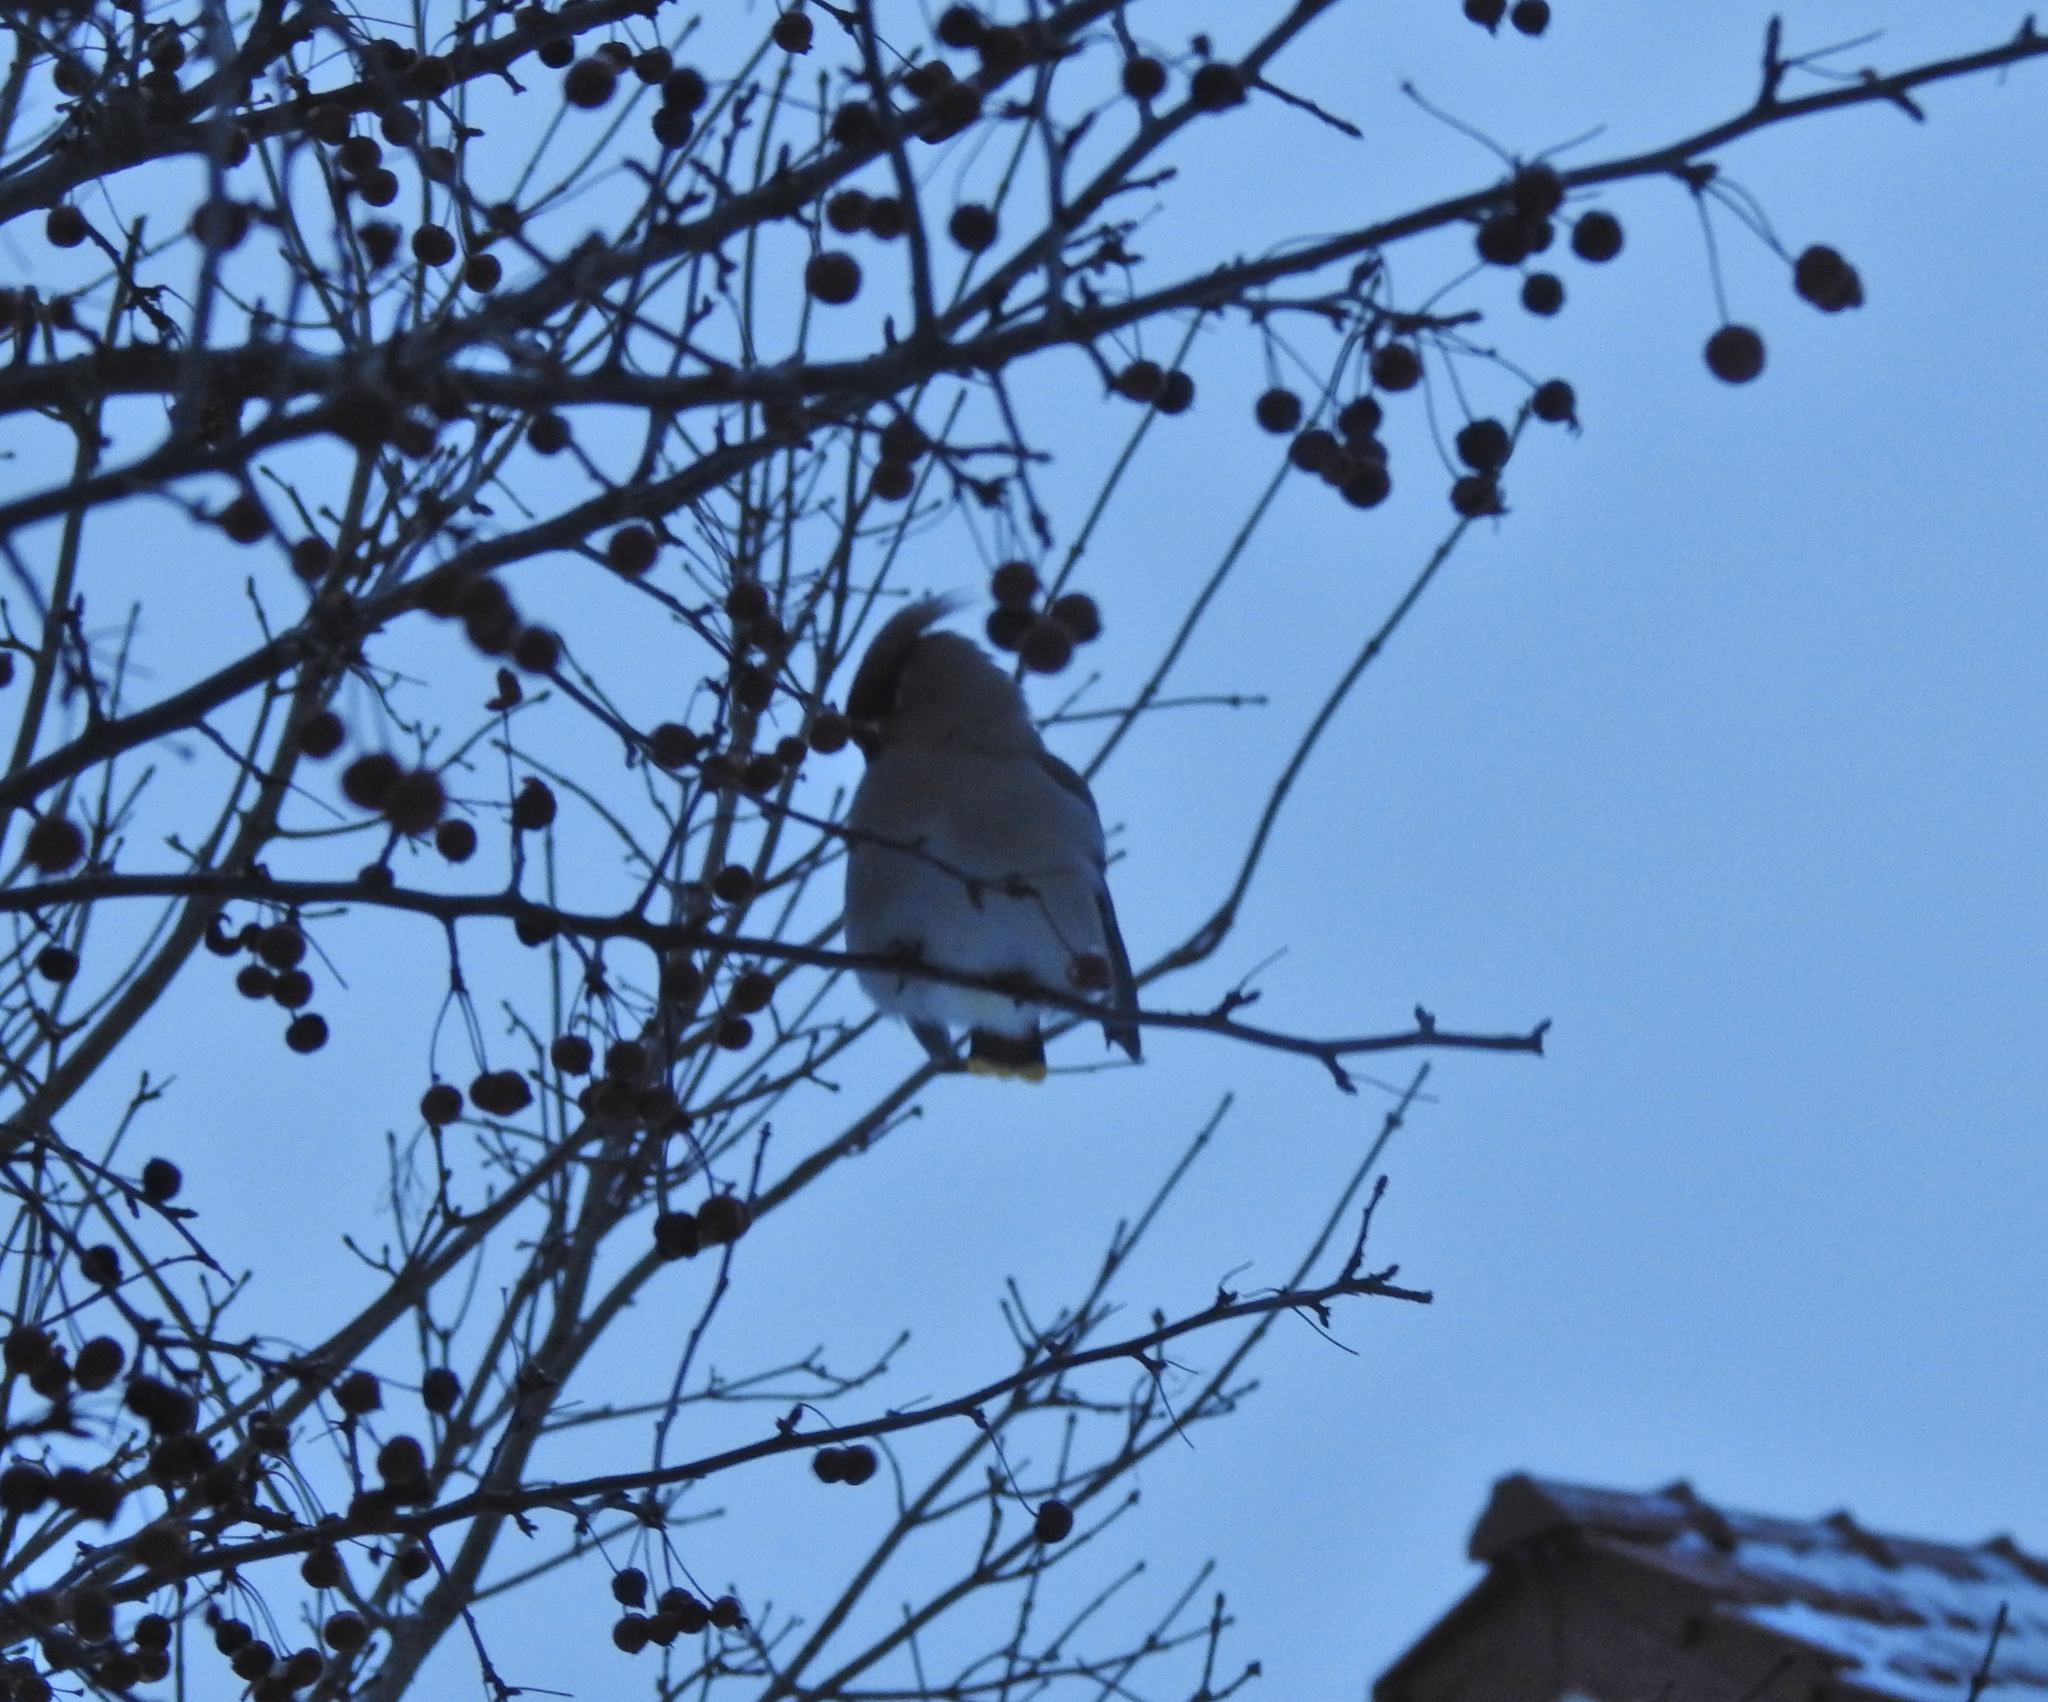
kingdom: Animalia
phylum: Chordata
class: Aves
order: Passeriformes
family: Bombycillidae
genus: Bombycilla
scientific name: Bombycilla garrulus
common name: Bohemian waxwing
